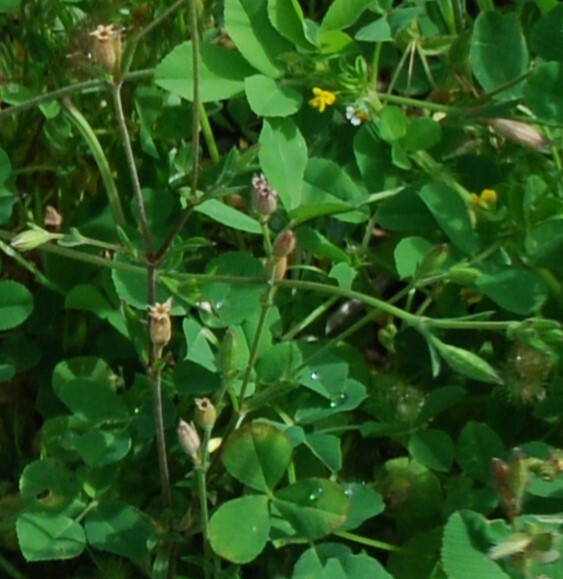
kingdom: Plantae
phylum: Tracheophyta
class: Magnoliopsida
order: Fabales
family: Fabaceae
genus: Medicago
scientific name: Medicago polymorpha
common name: Burclover
